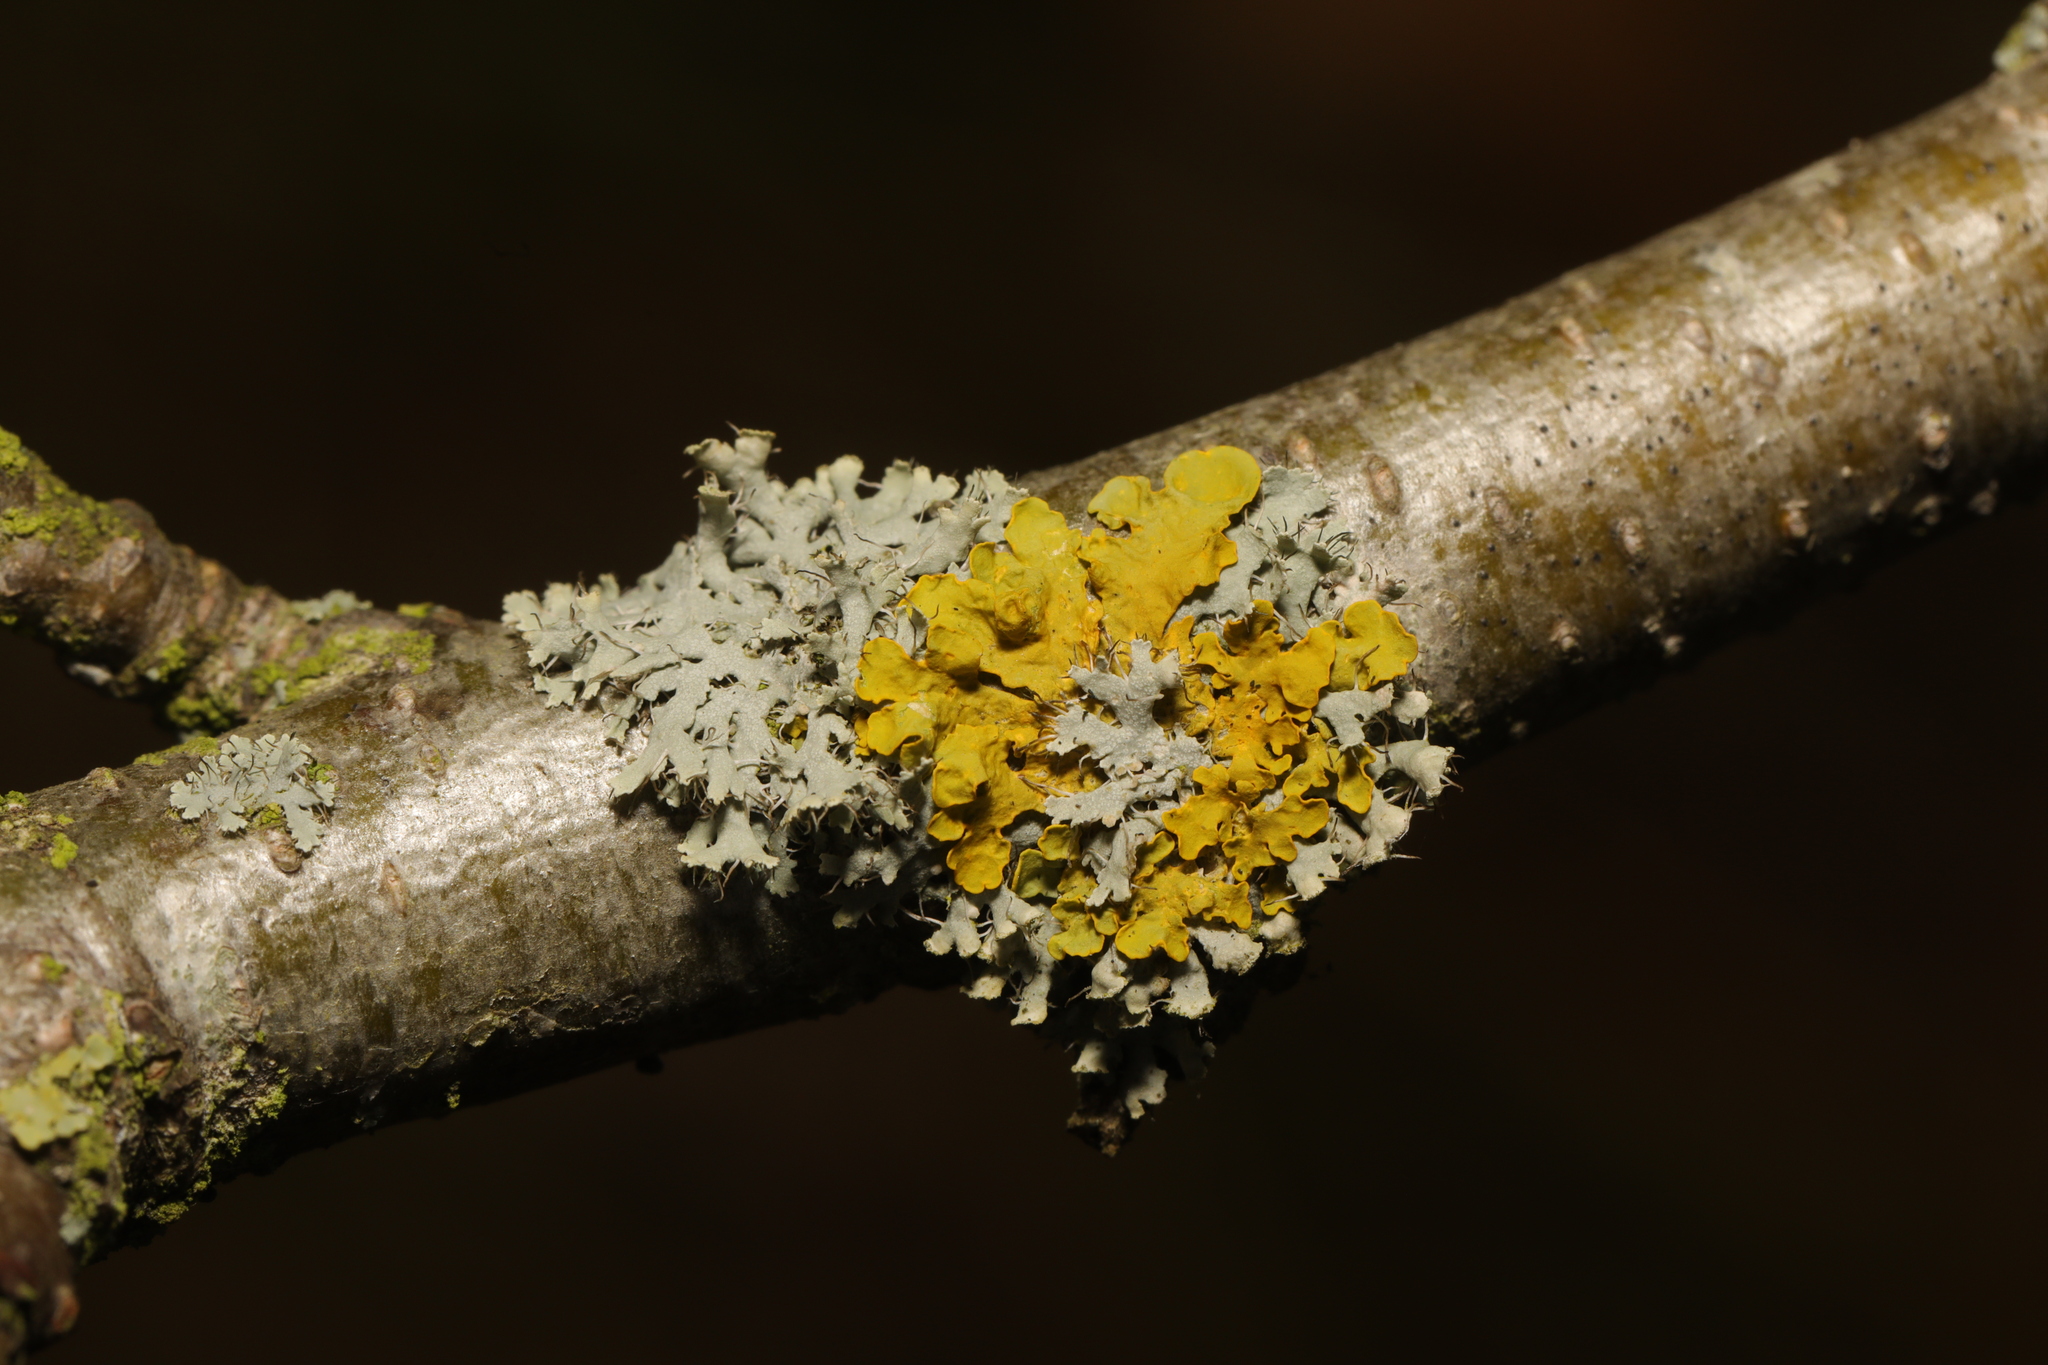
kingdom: Fungi
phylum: Ascomycota
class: Lecanoromycetes
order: Caliciales
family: Physciaceae
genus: Physcia
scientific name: Physcia adscendens
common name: Hooded rosette lichen
